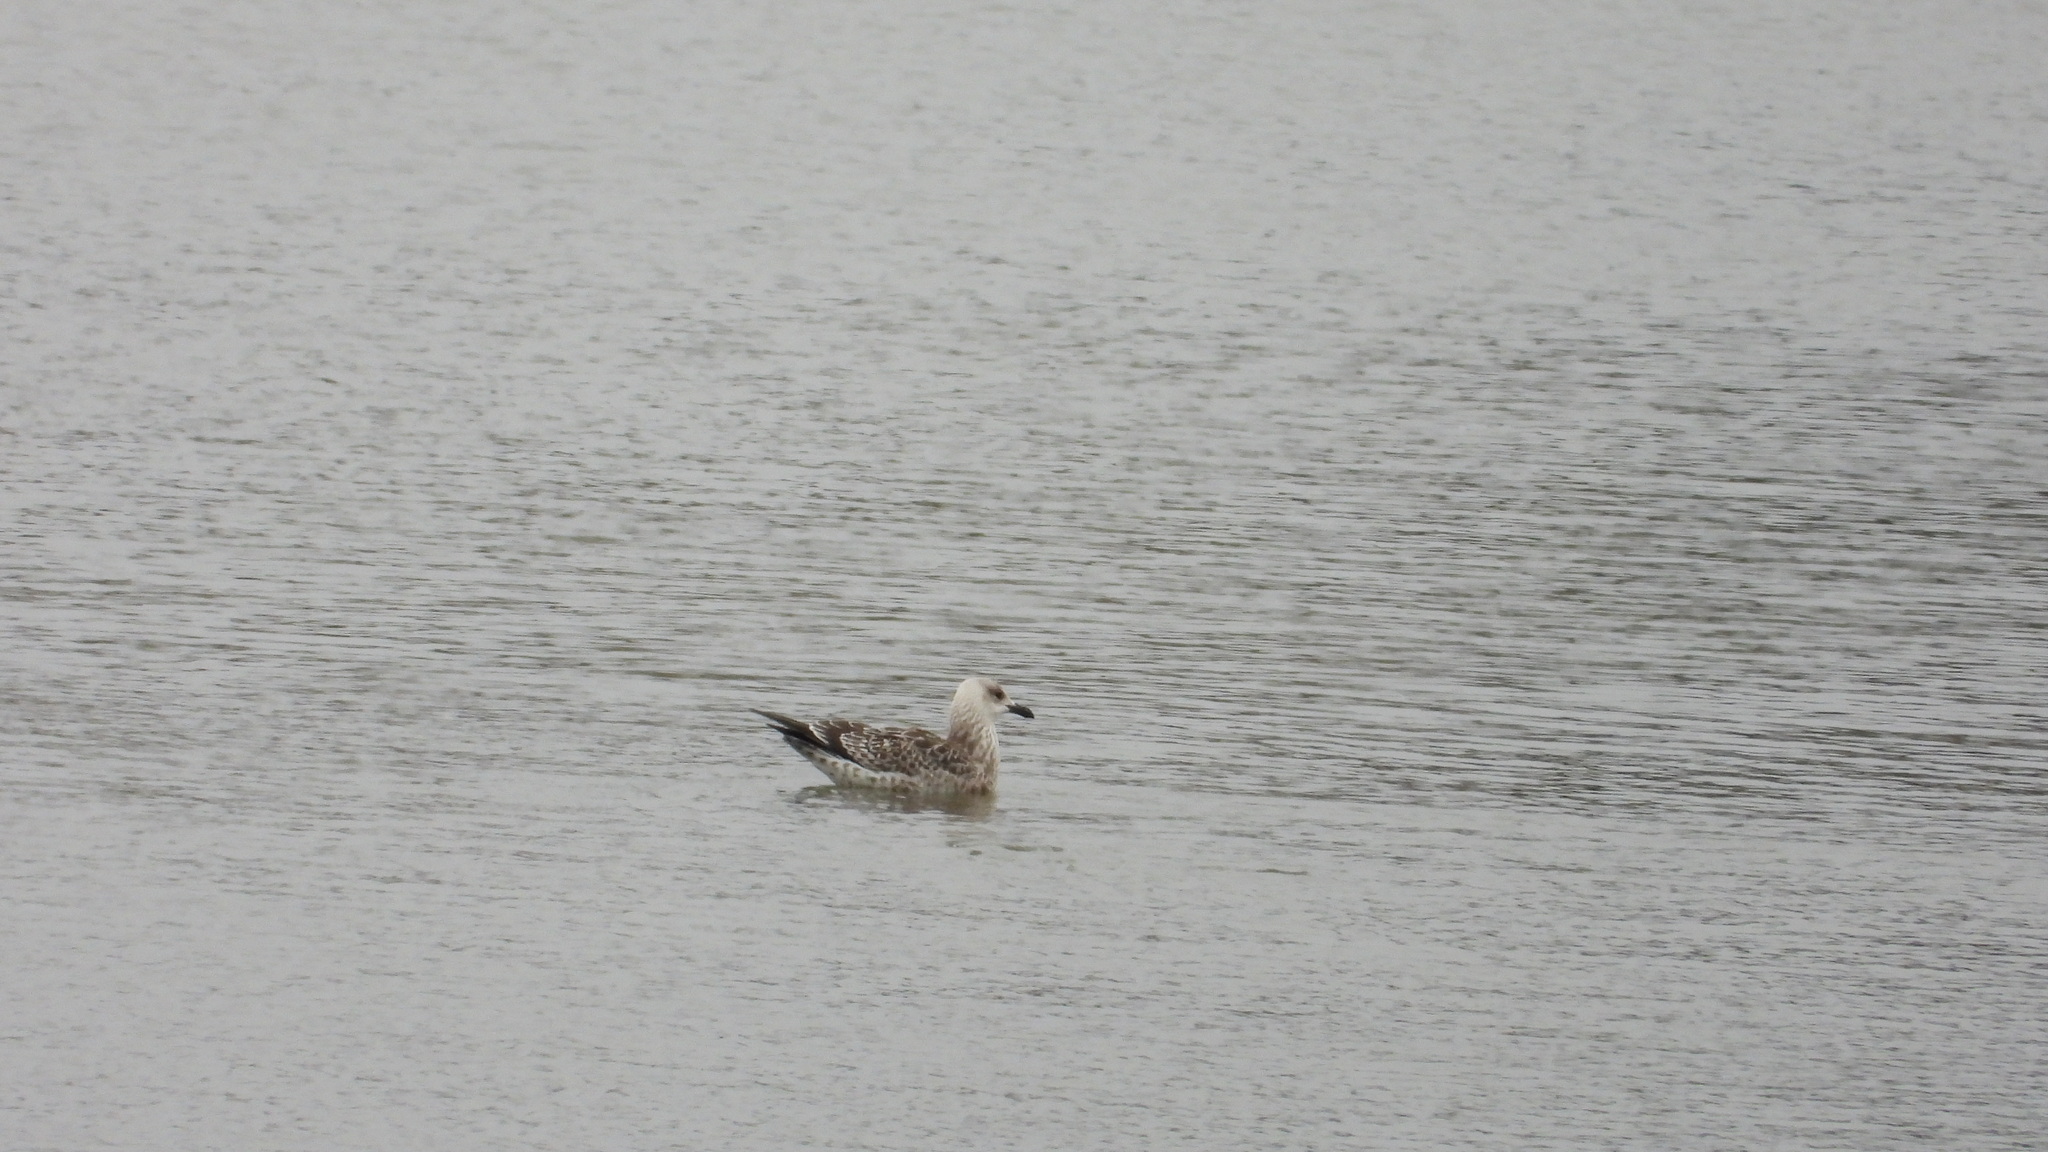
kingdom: Animalia
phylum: Chordata
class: Aves
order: Charadriiformes
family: Laridae
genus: Larus
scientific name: Larus fuscus
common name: Lesser black-backed gull
